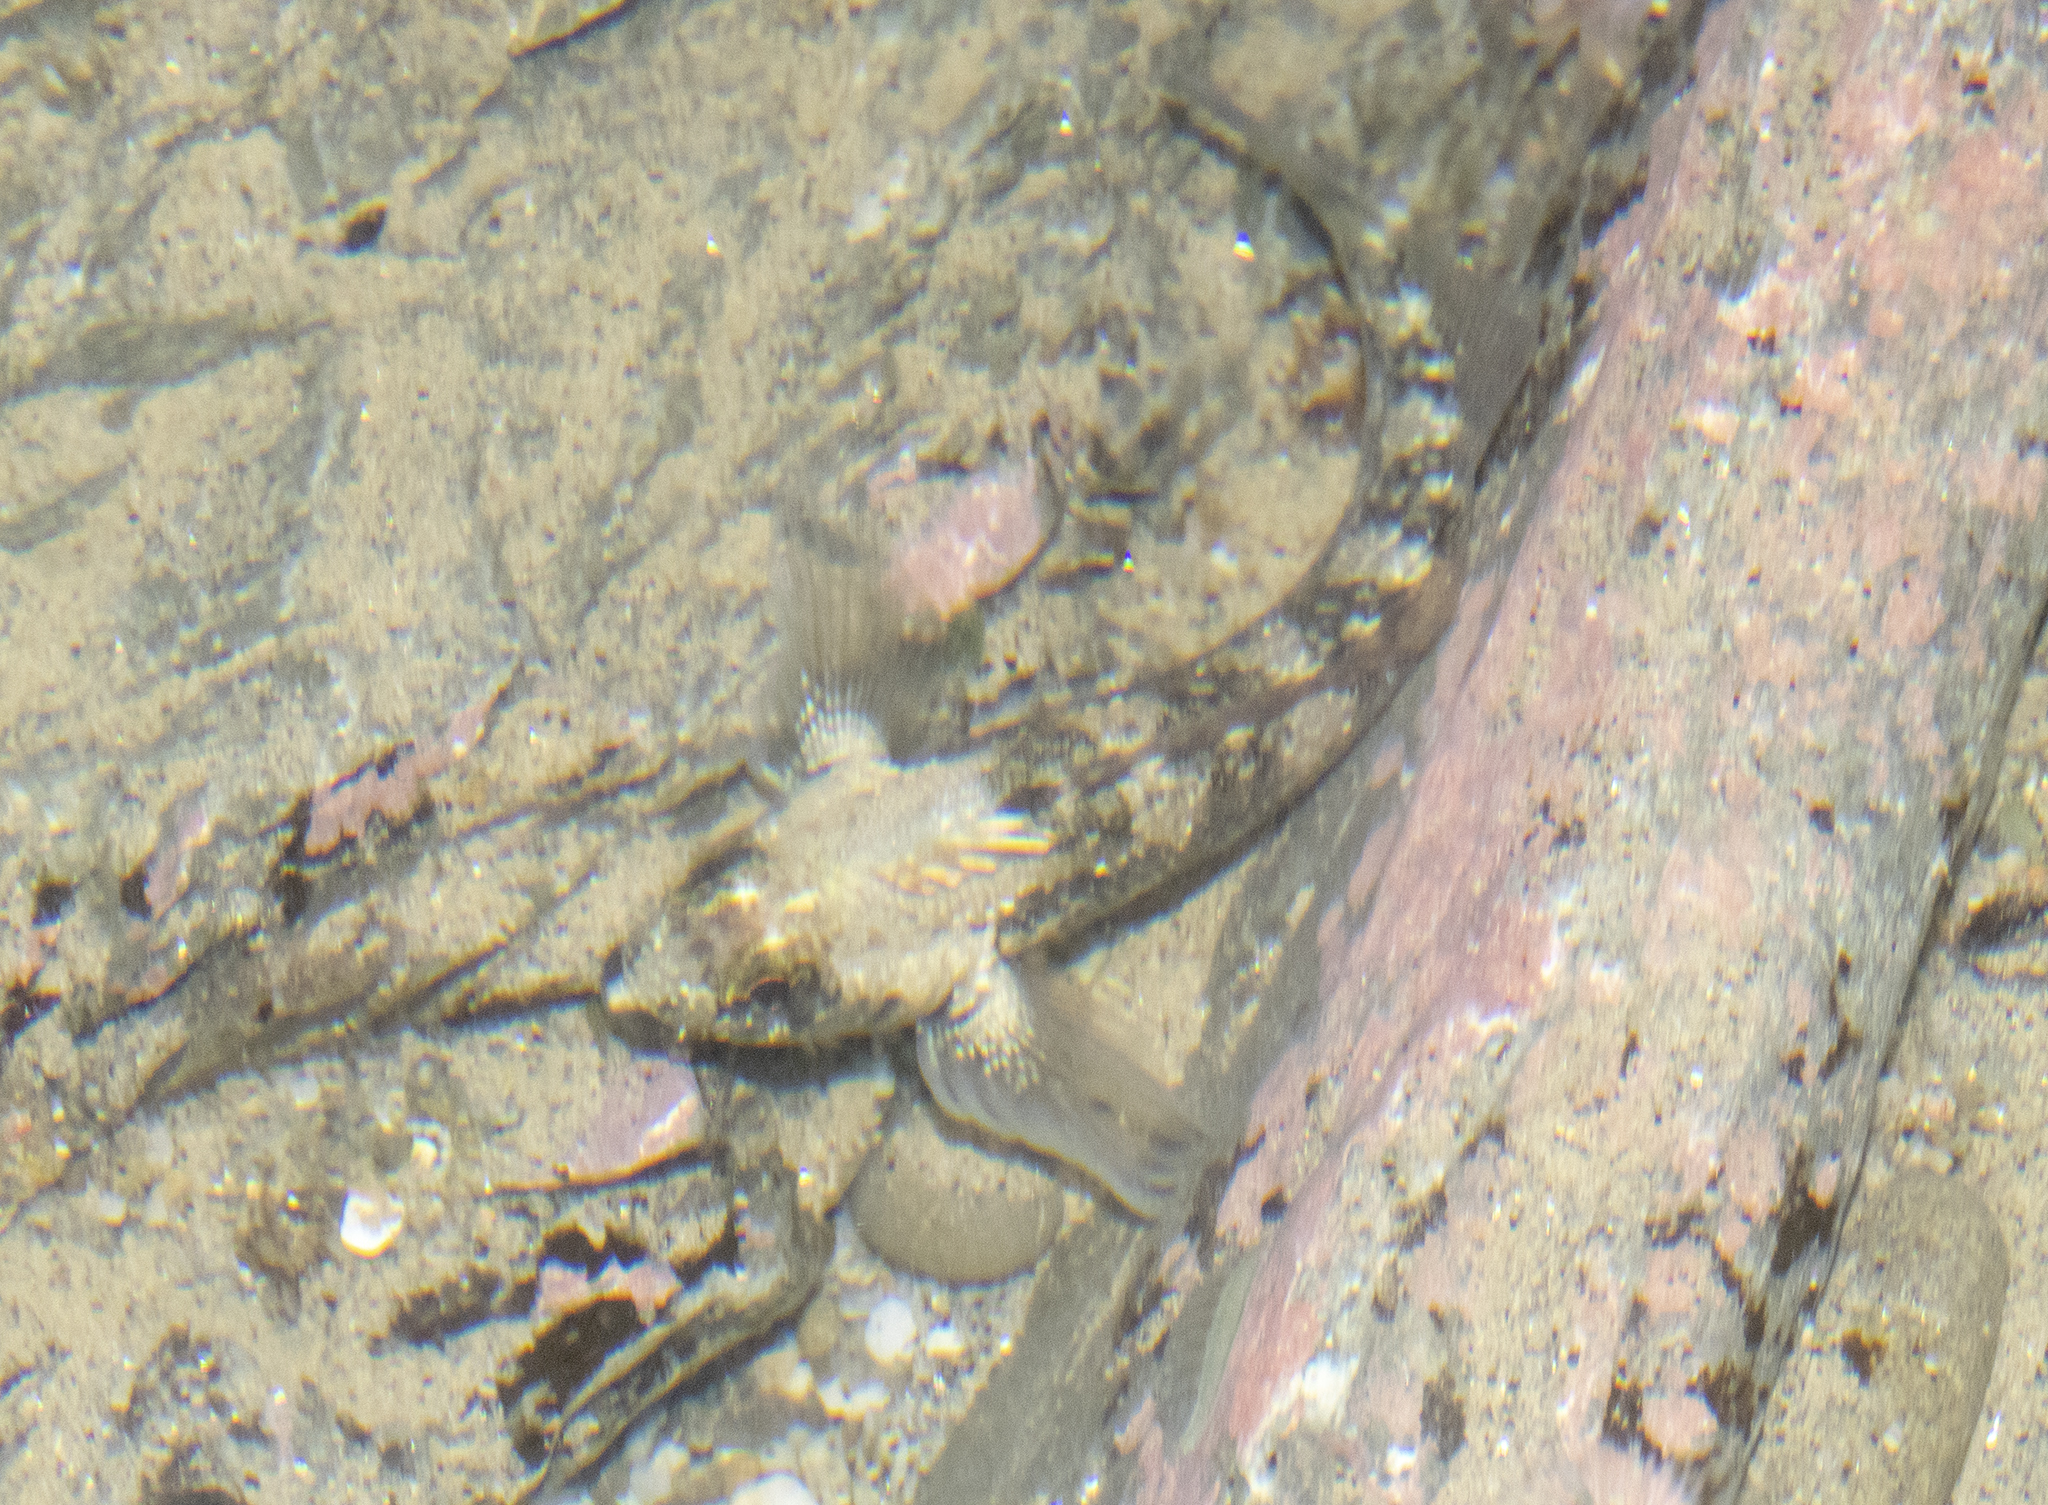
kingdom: Animalia
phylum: Chordata
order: Perciformes
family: Tripterygiidae
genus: Forsterygion
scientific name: Forsterygion lapillum
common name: Common triplefin
